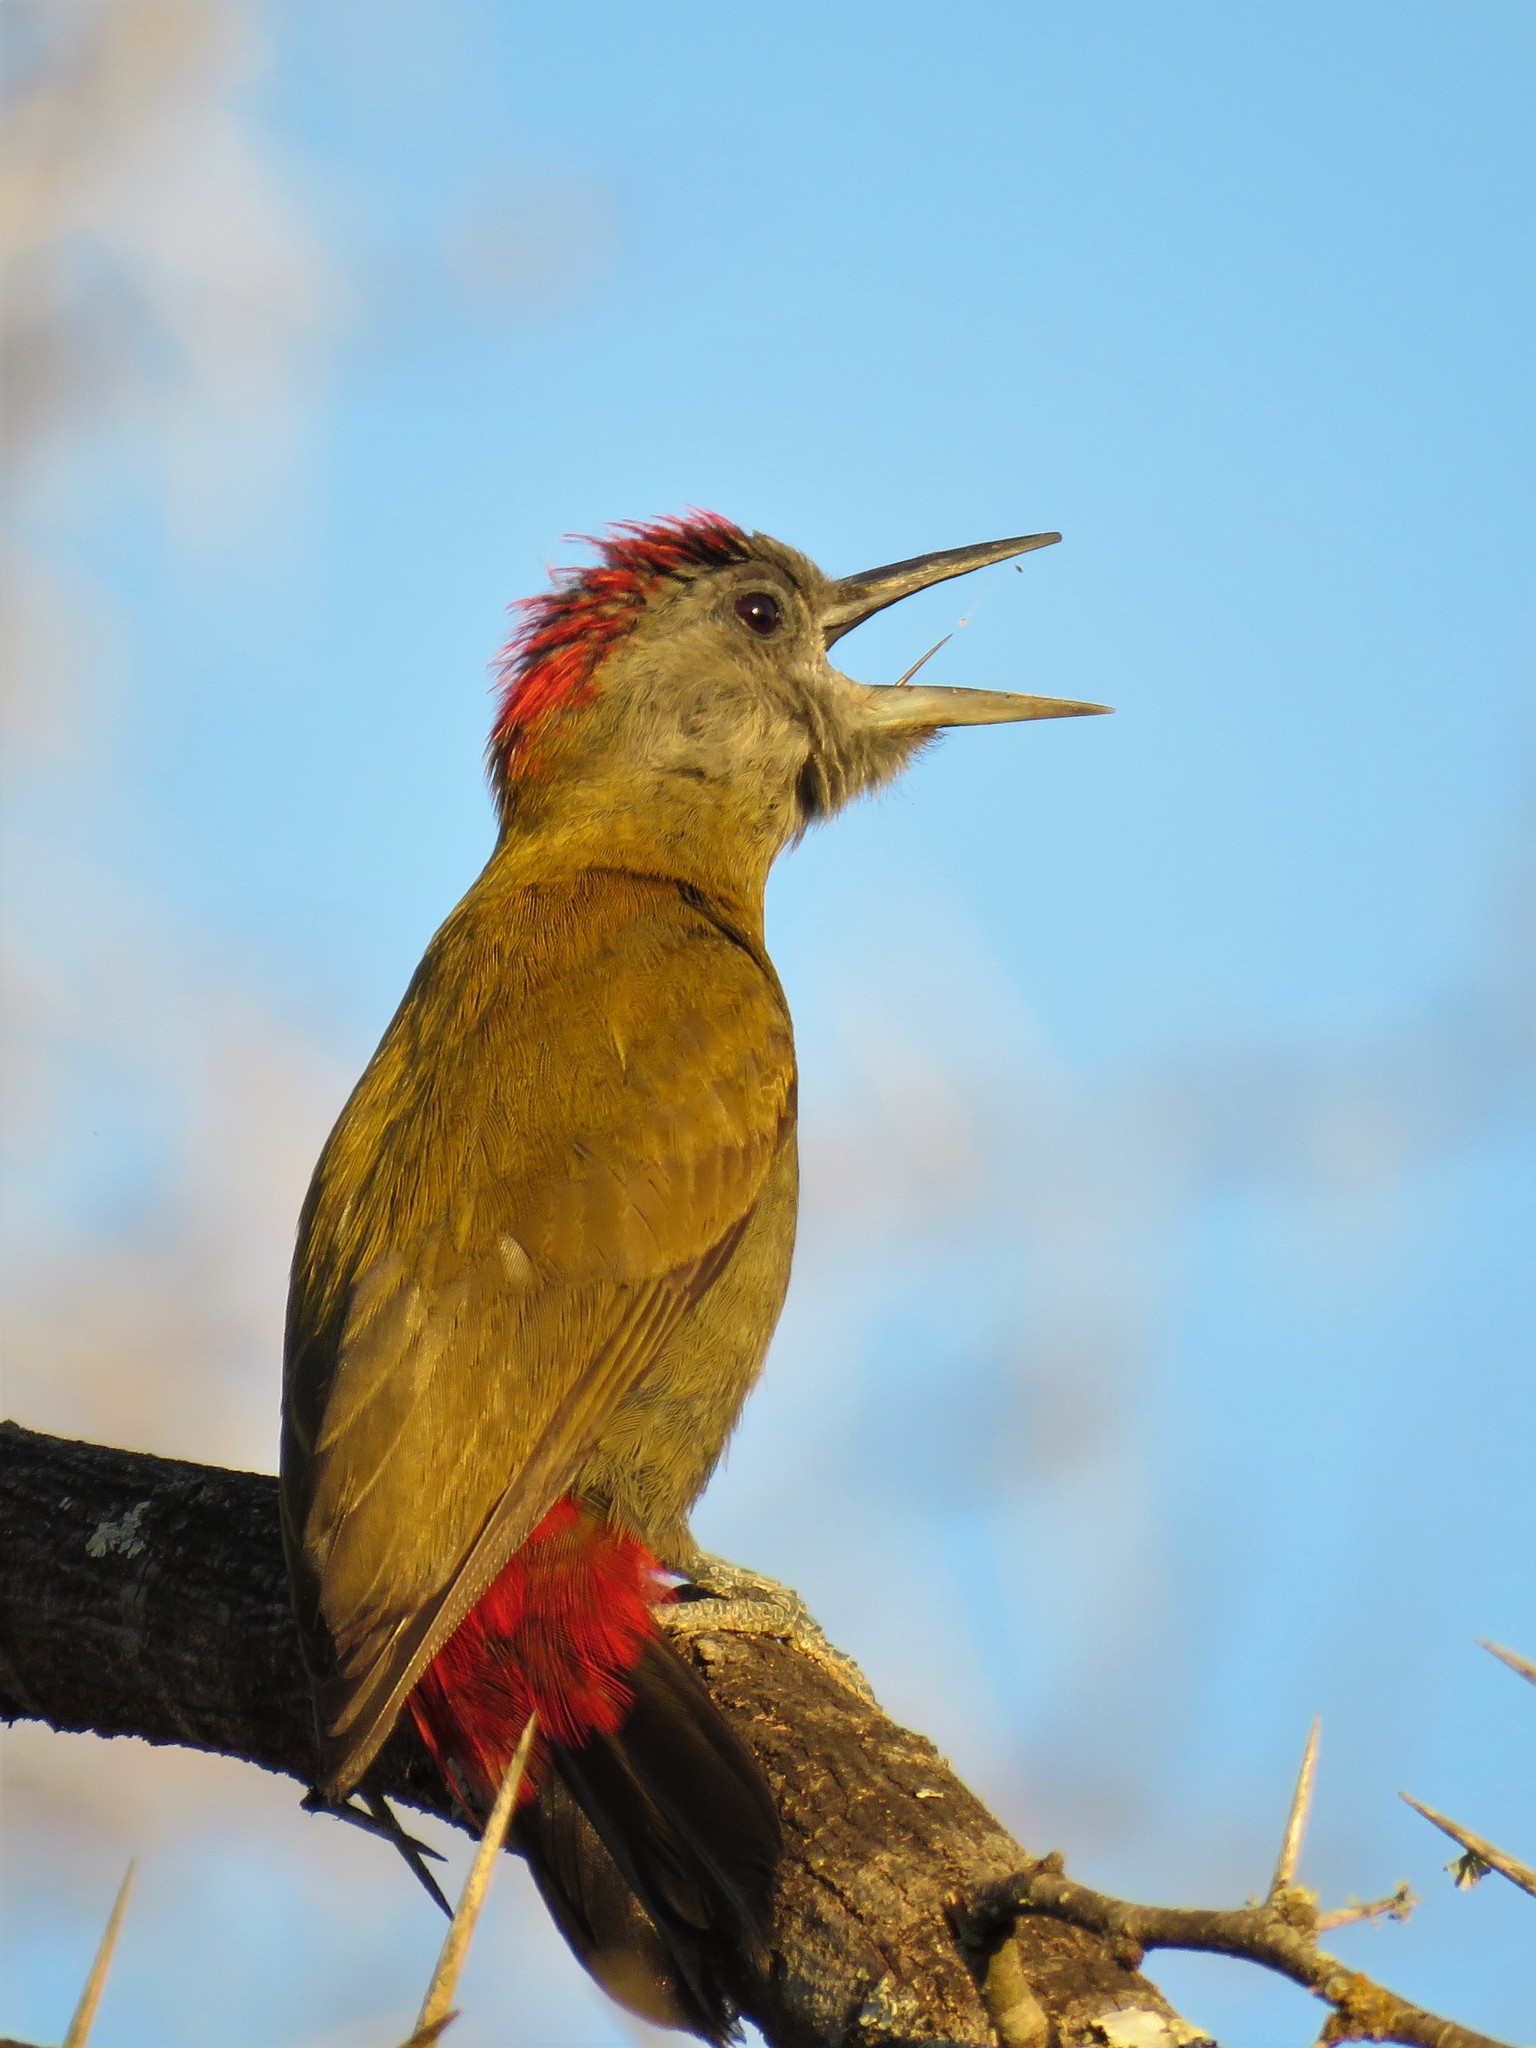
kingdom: Animalia
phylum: Chordata
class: Aves
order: Piciformes
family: Picidae
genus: Dendropicos
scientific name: Dendropicos griseocephalus
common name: Olive woodpecker
